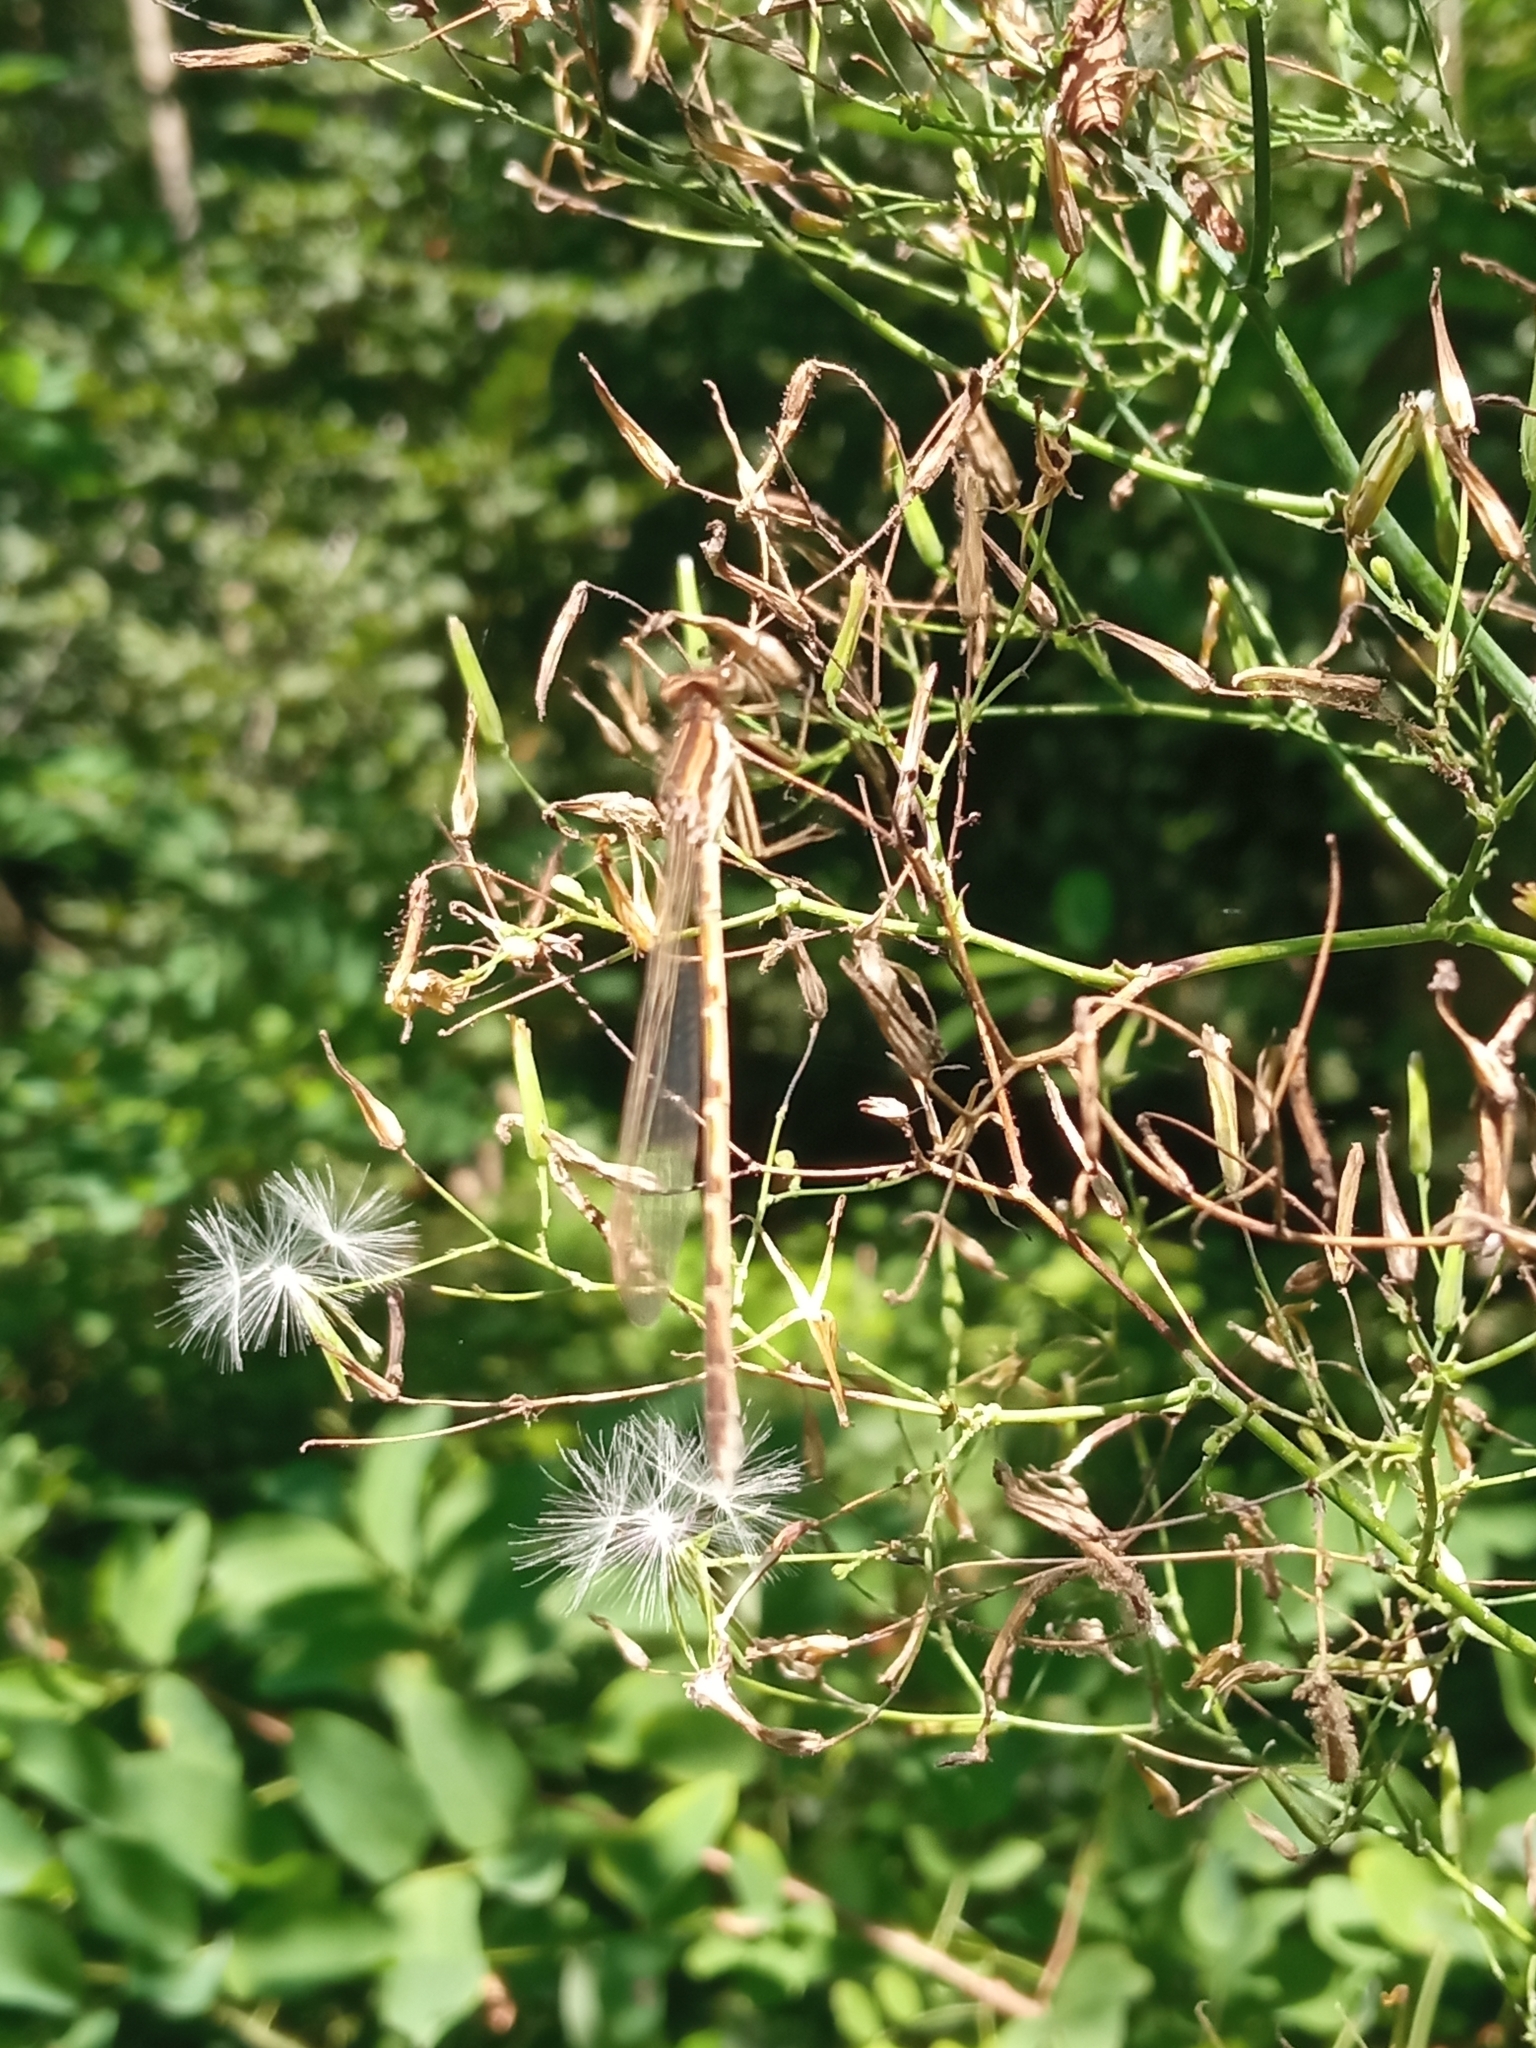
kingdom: Animalia
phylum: Arthropoda
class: Insecta
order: Odonata
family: Lestidae
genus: Sympecma
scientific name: Sympecma fusca
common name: Common winter damsel
